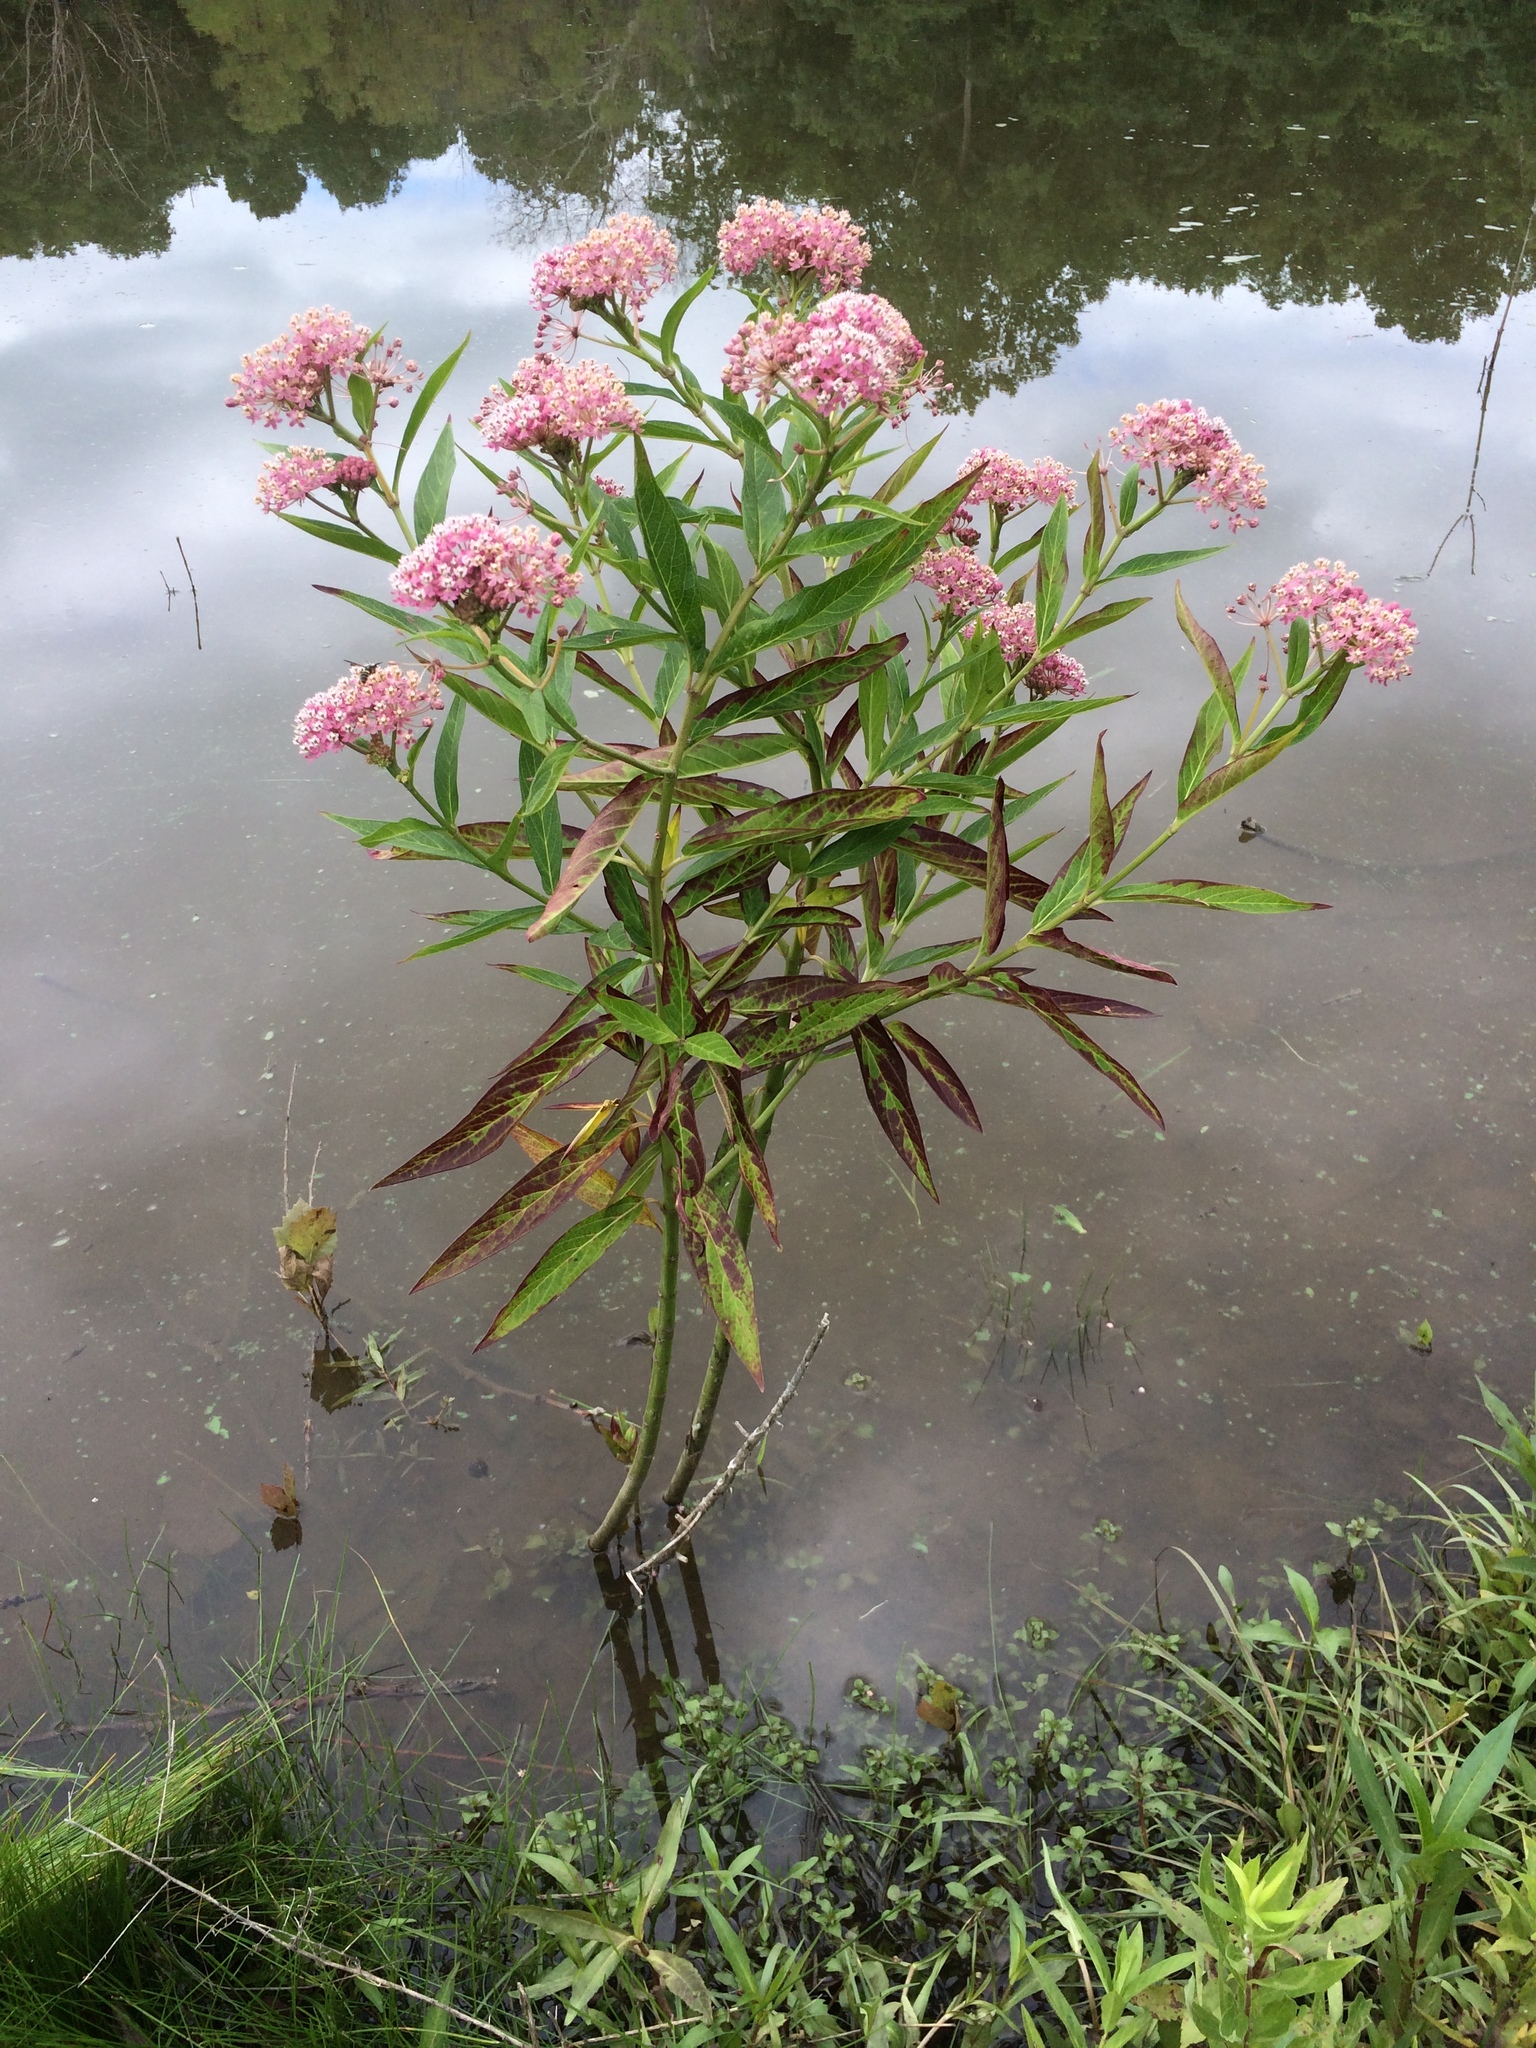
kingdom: Plantae
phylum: Tracheophyta
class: Magnoliopsida
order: Gentianales
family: Apocynaceae
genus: Asclepias
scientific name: Asclepias incarnata
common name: Swamp milkweed
